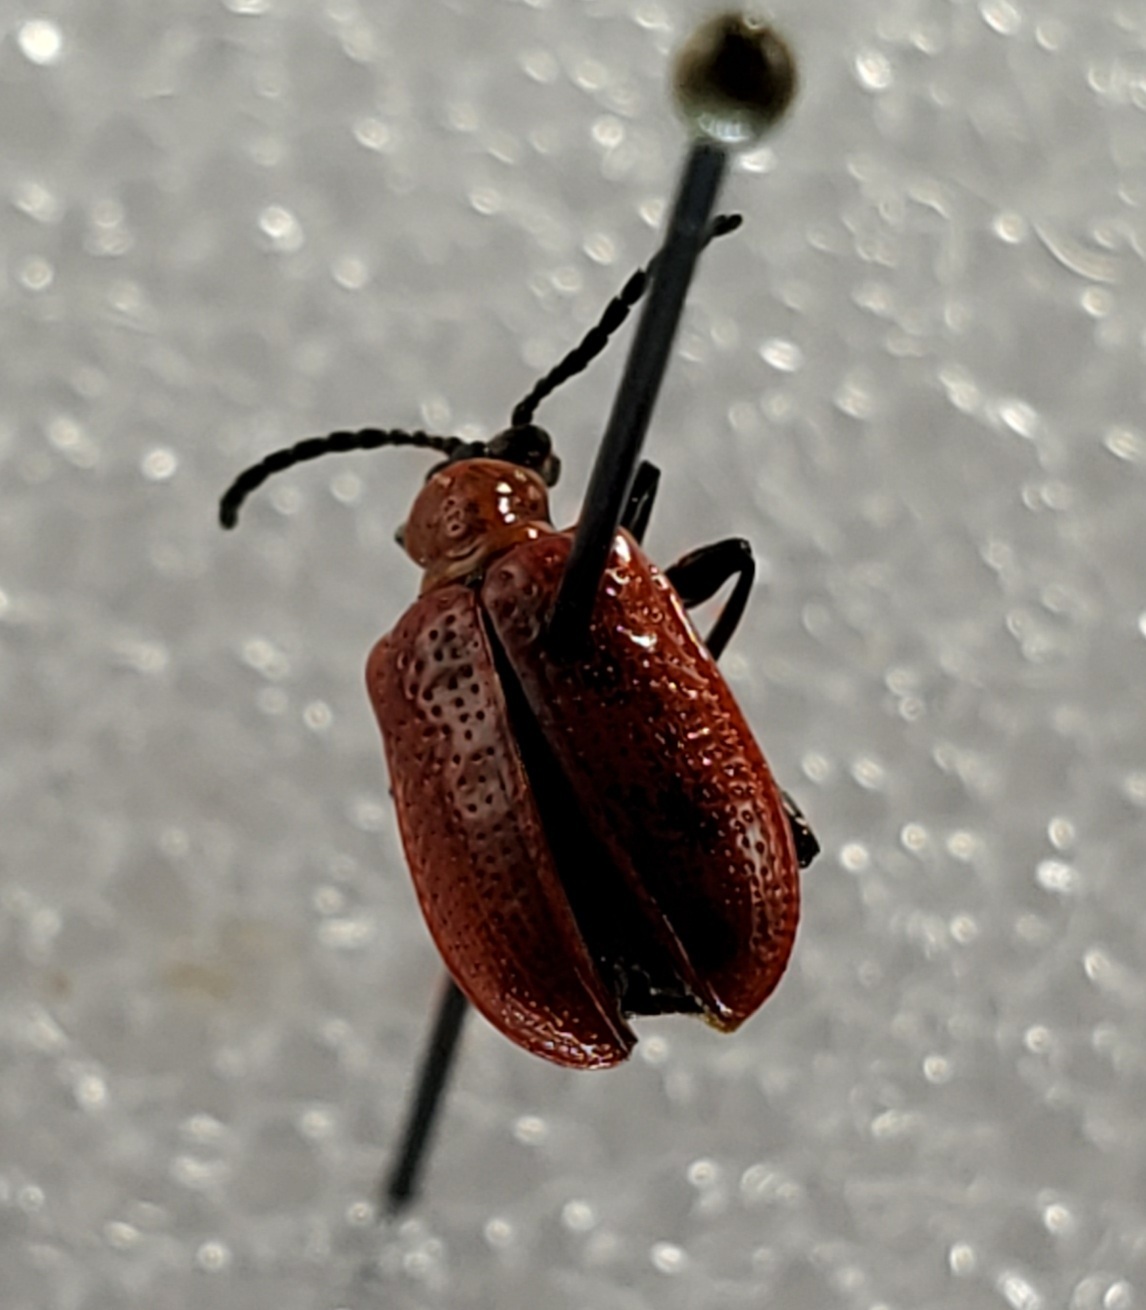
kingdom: Animalia
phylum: Arthropoda
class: Insecta
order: Coleoptera
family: Chrysomelidae
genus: Lilioceris
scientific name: Lilioceris lilii
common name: Lily beetle
